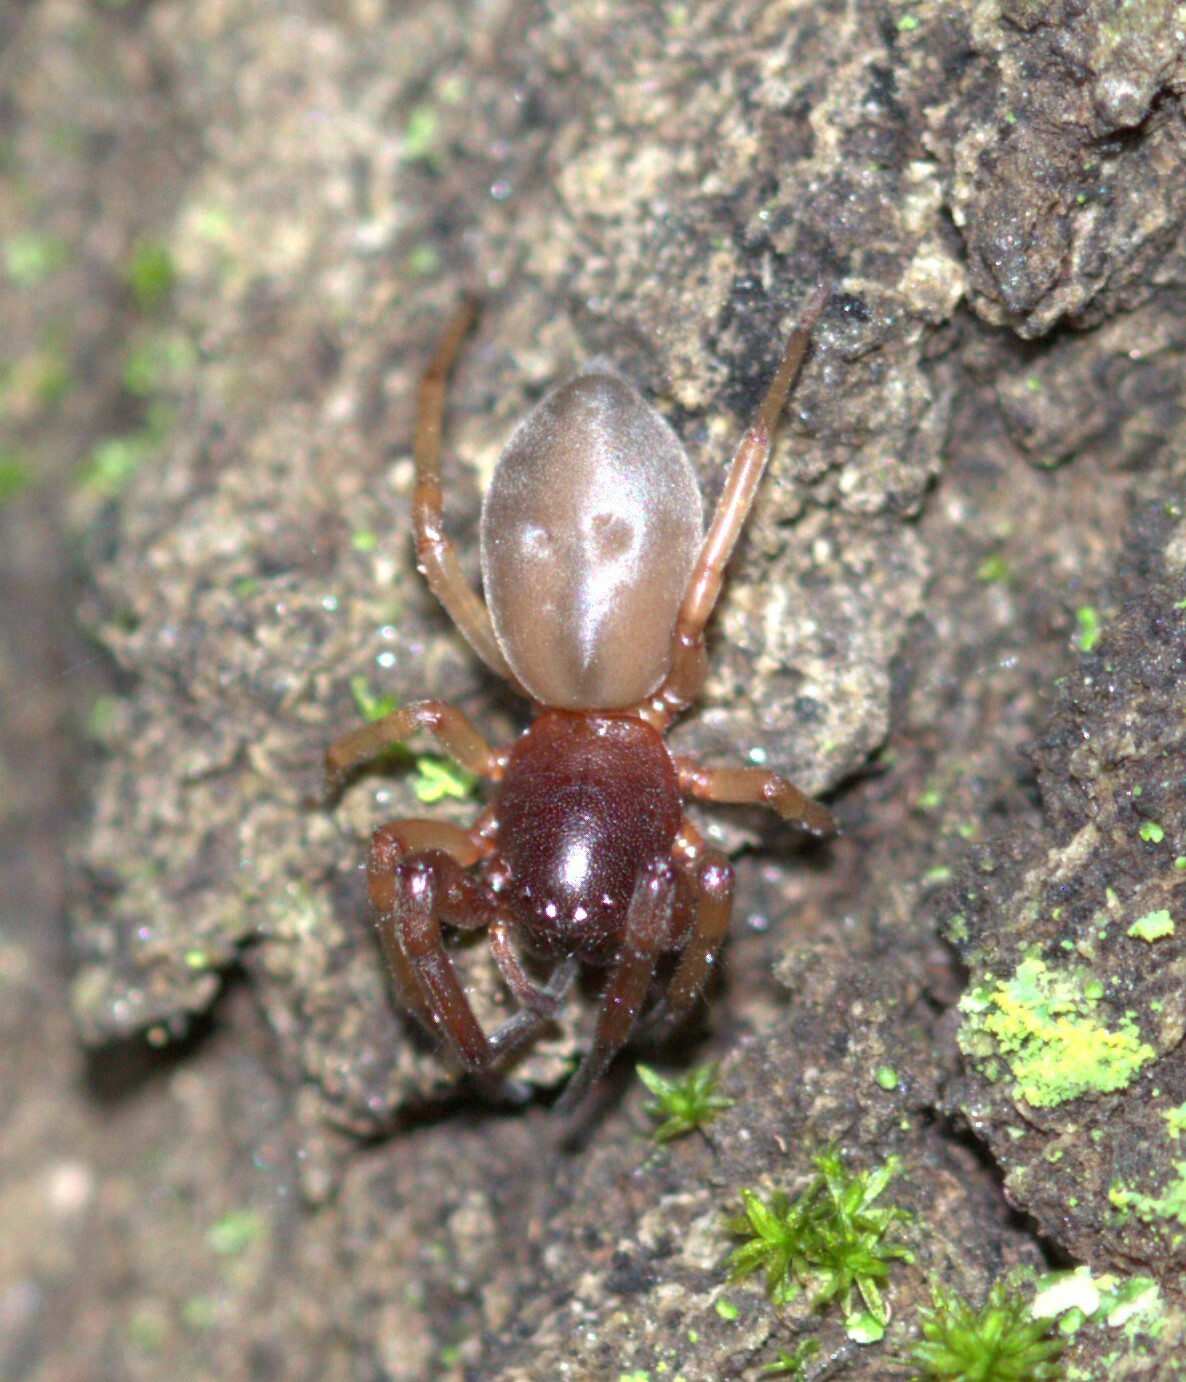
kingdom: Animalia
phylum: Arthropoda
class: Arachnida
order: Araneae
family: Trachelidae
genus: Trachelas
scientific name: Trachelas pacificus
